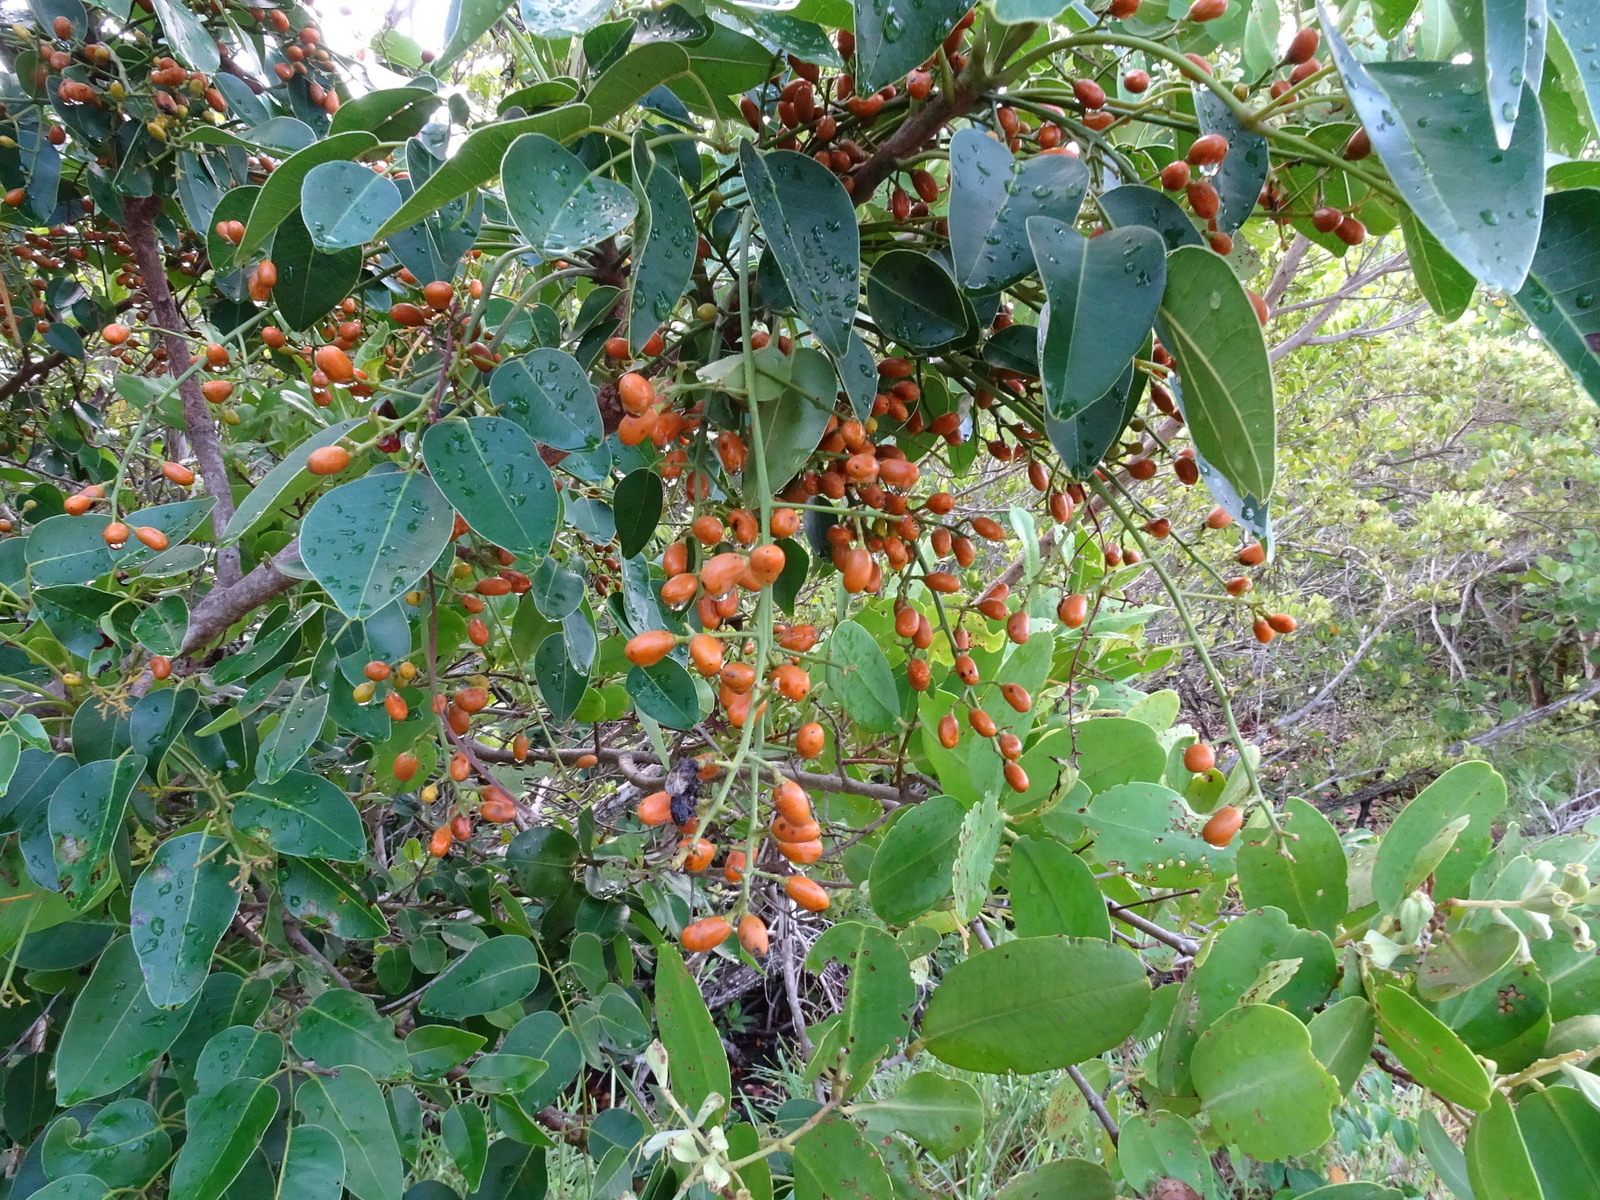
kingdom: Plantae
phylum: Tracheophyta
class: Magnoliopsida
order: Sapindales
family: Anacardiaceae
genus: Metopium
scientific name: Metopium toxiferum
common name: Florida poisontree
